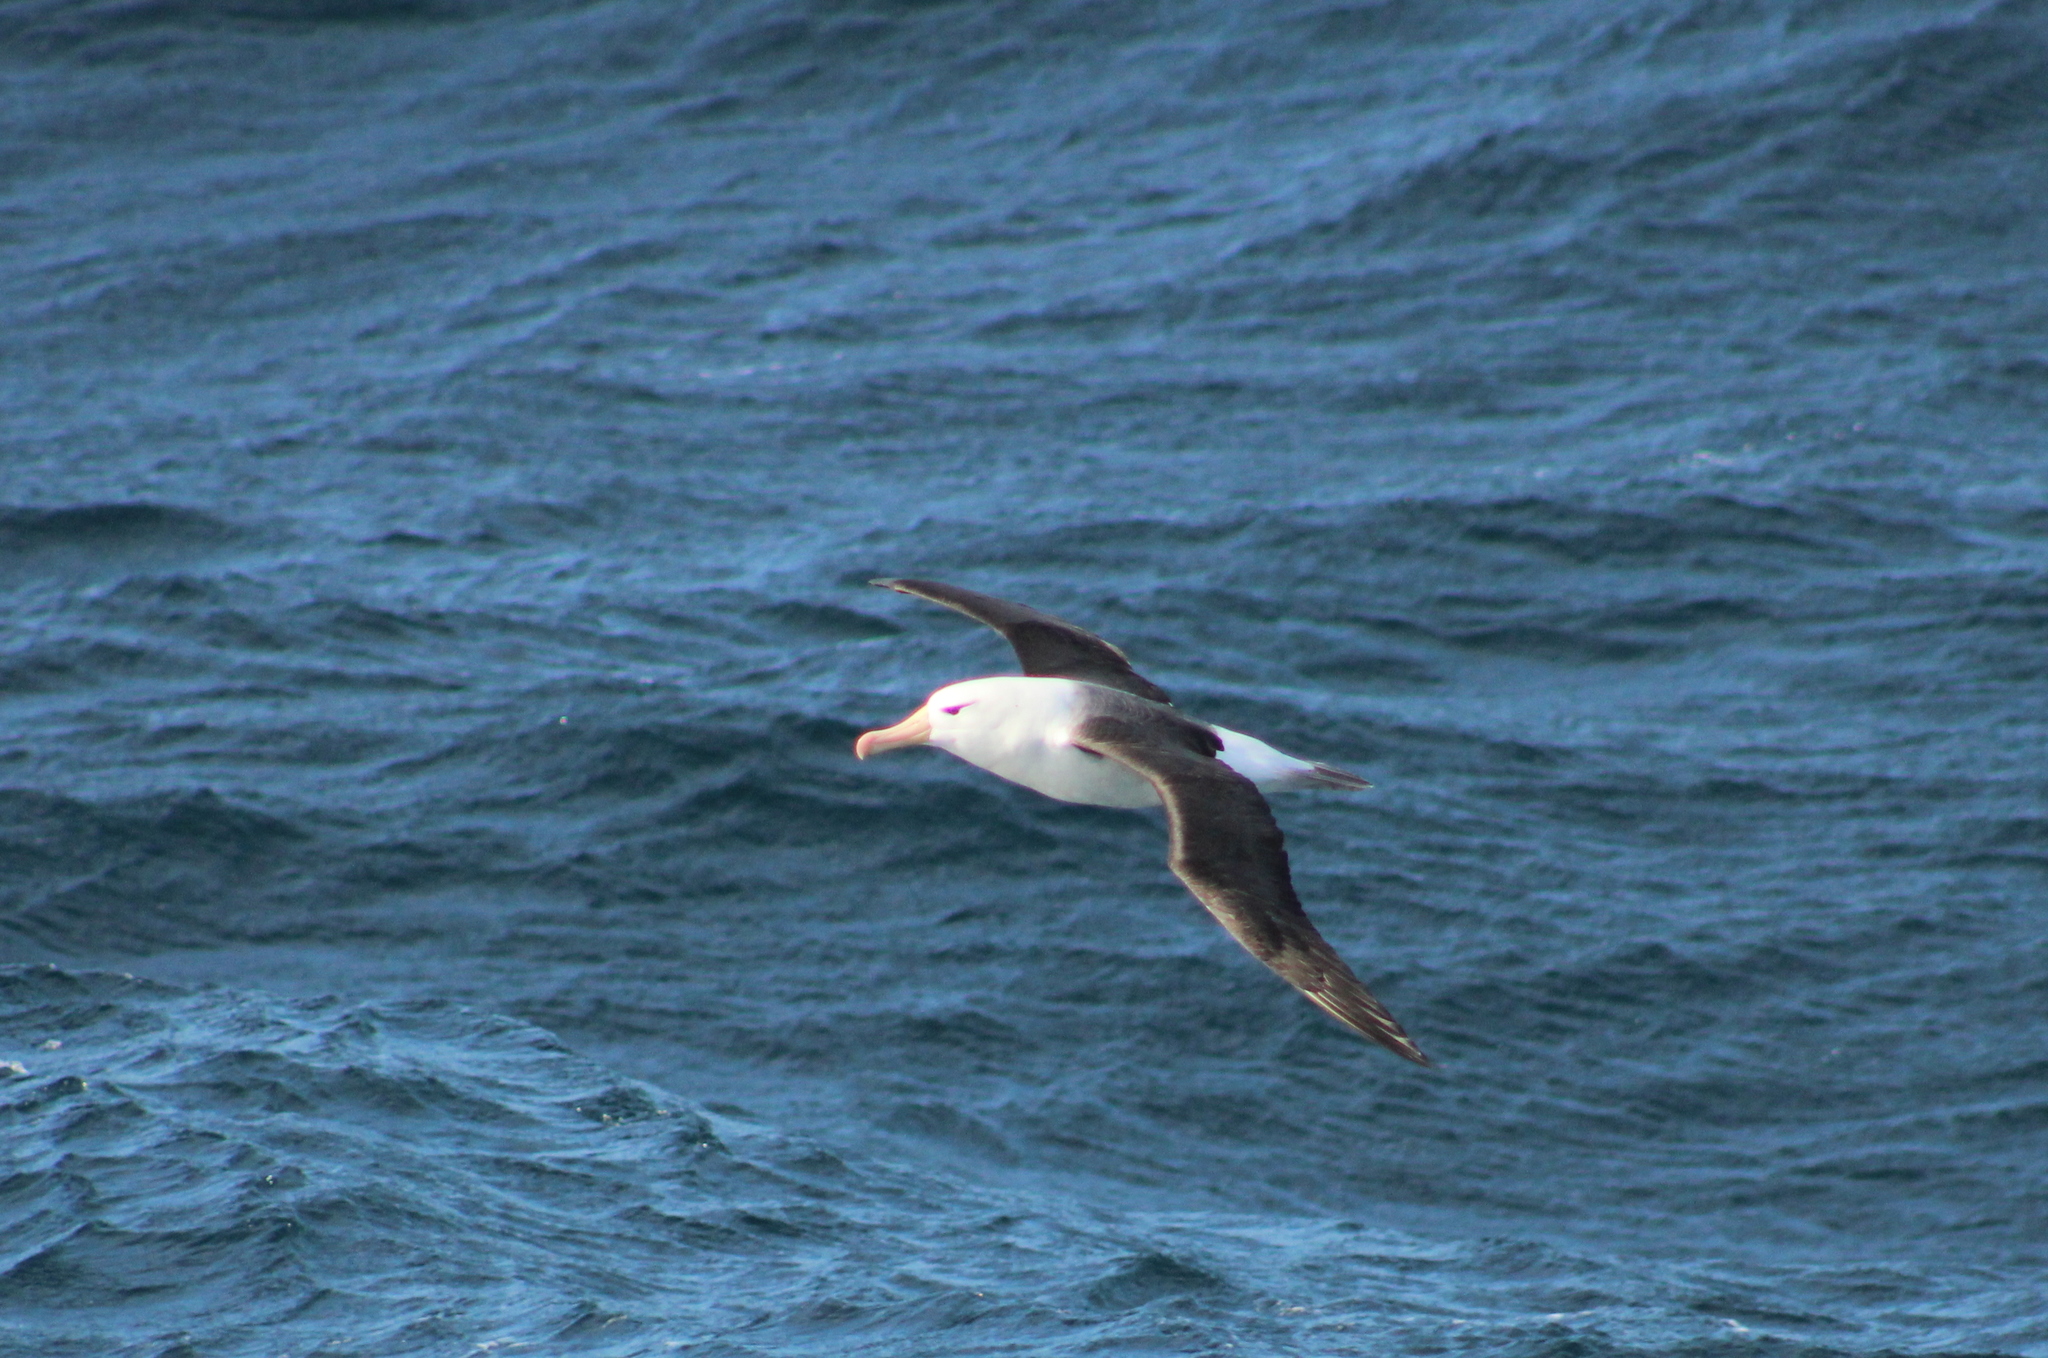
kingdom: Animalia
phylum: Chordata
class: Aves
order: Procellariiformes
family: Diomedeidae
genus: Thalassarche
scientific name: Thalassarche melanophris
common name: Black-browed albatross
